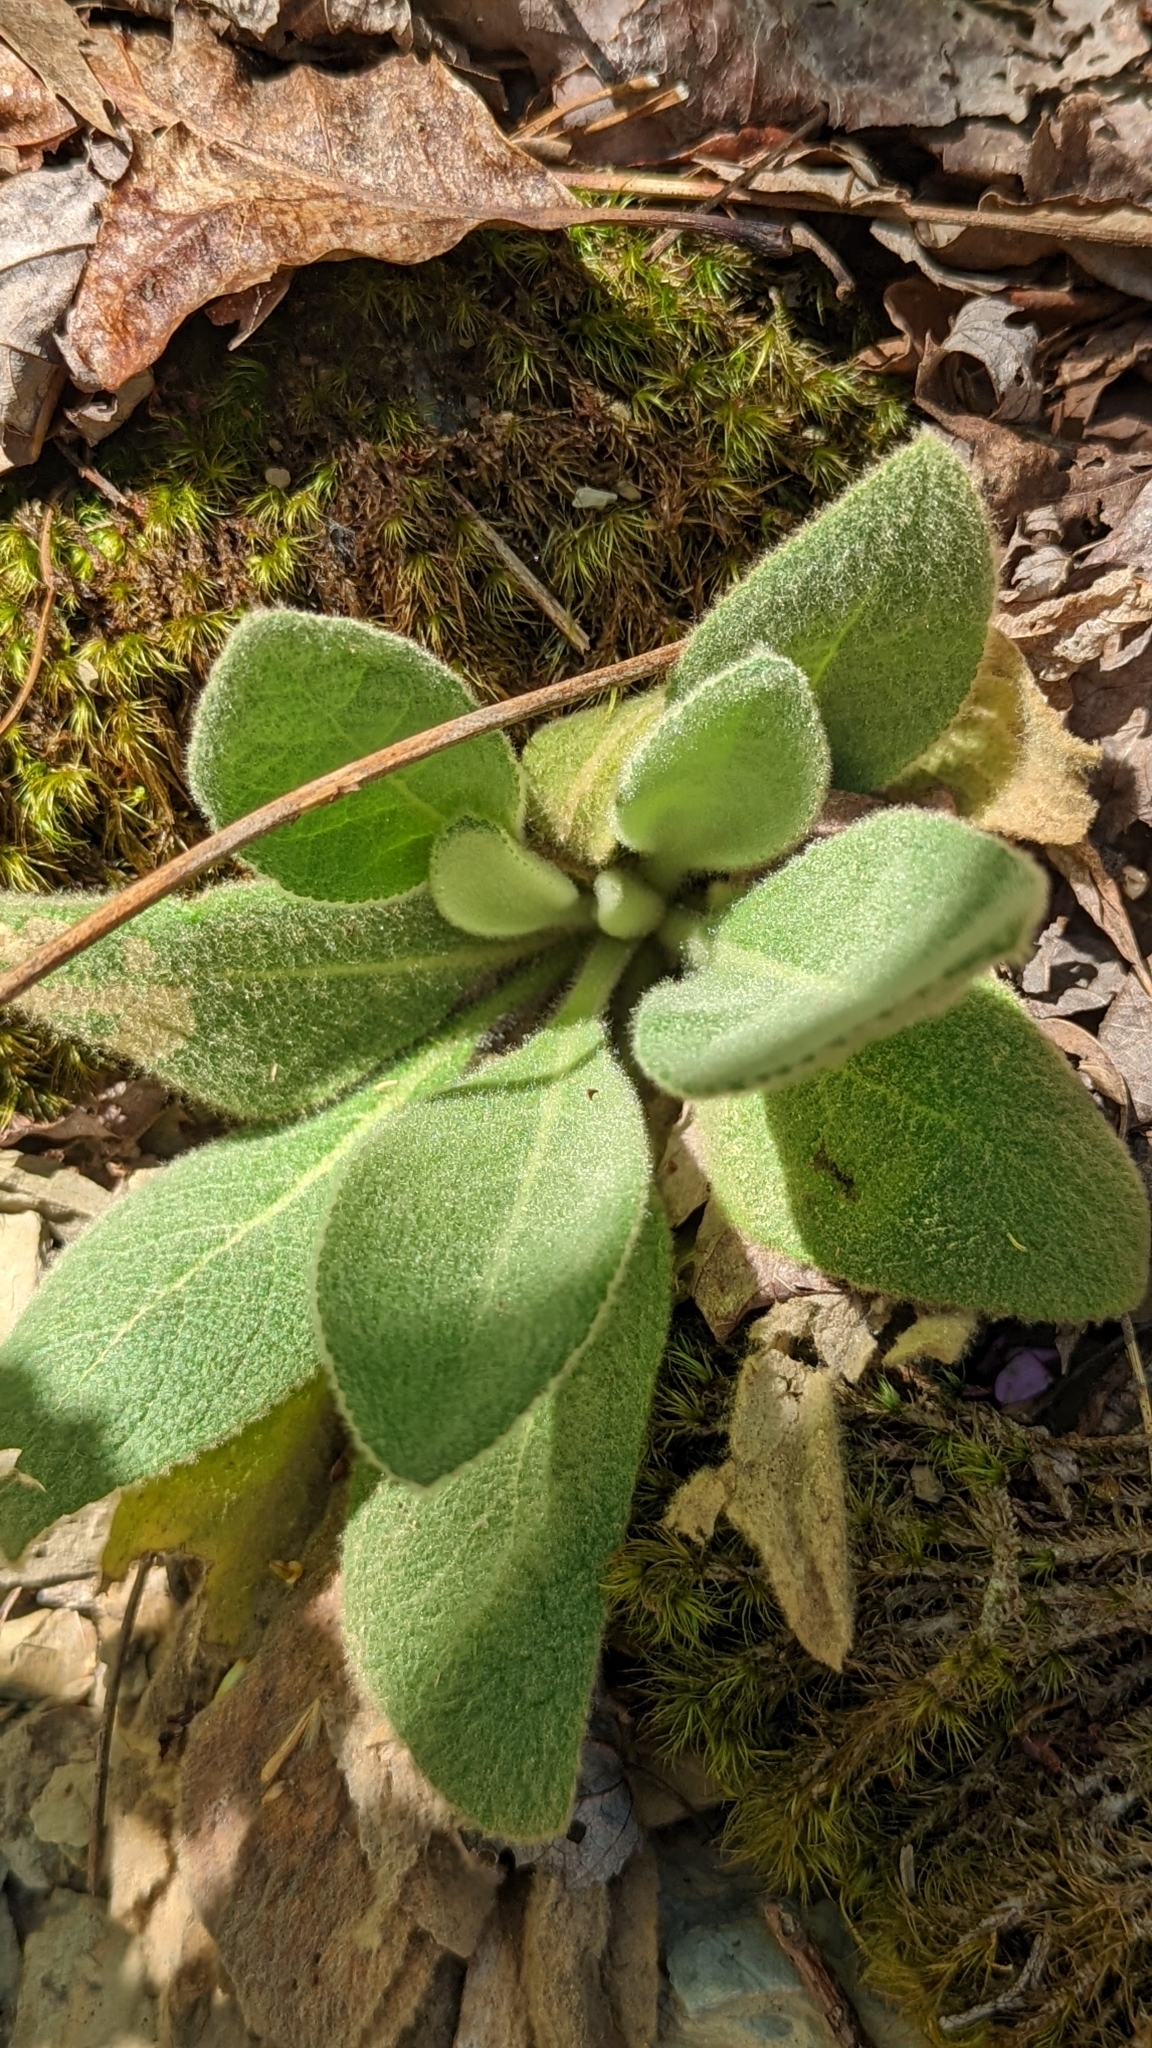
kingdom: Plantae
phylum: Tracheophyta
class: Magnoliopsida
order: Lamiales
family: Scrophulariaceae
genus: Verbascum
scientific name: Verbascum thapsus
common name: Common mullein
